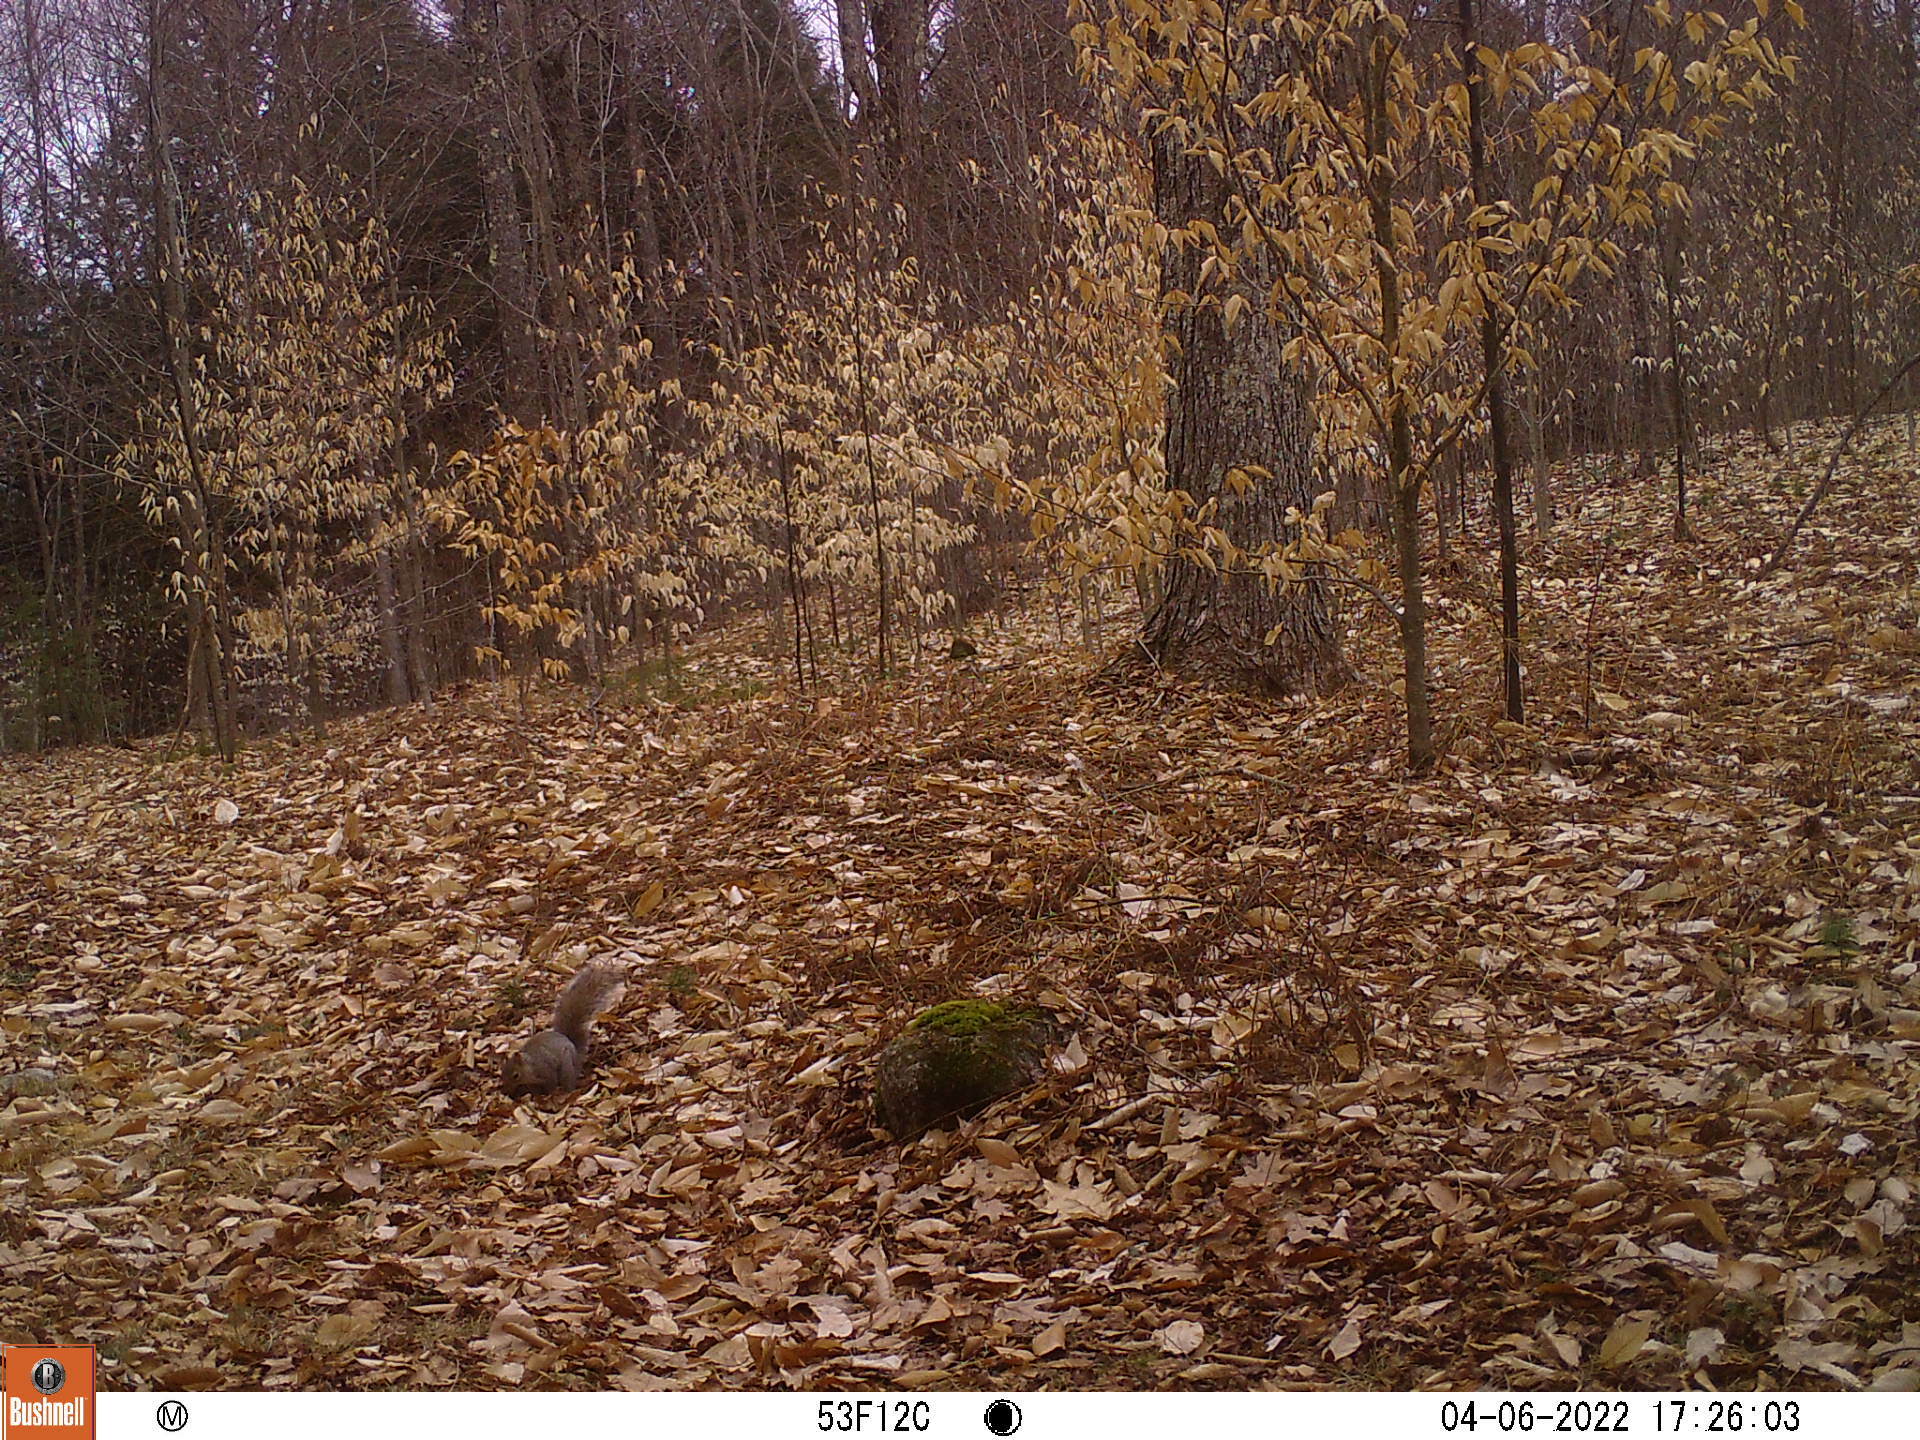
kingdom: Animalia
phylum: Chordata
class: Mammalia
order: Rodentia
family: Sciuridae
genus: Sciurus
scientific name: Sciurus carolinensis
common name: Eastern gray squirrel
